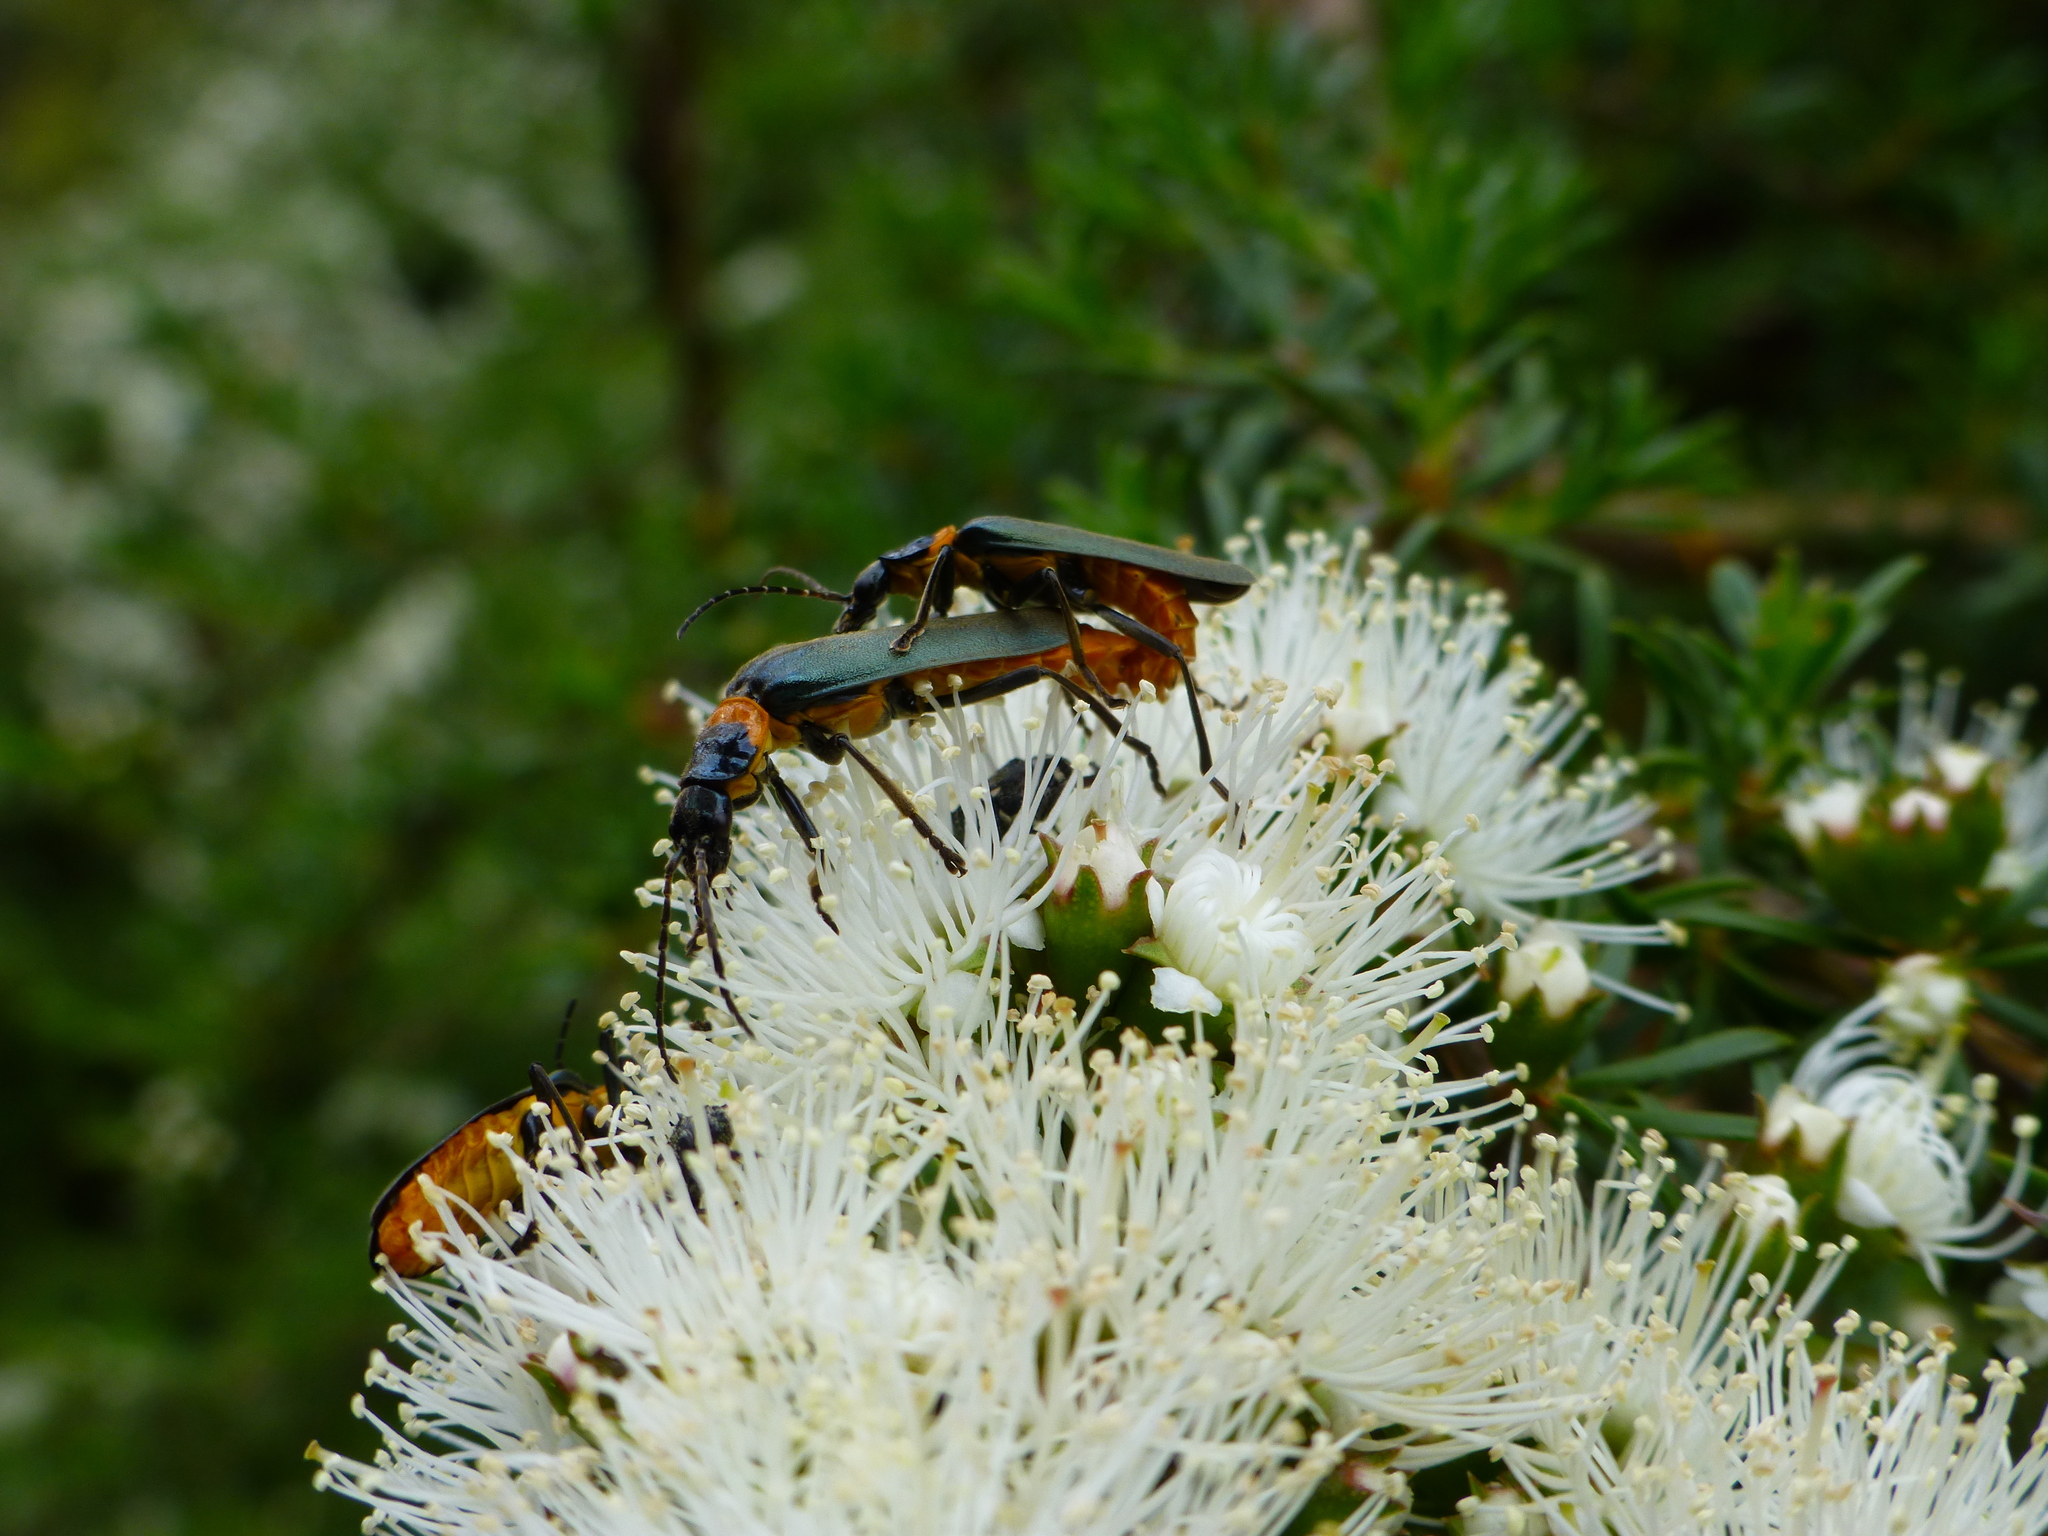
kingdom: Animalia
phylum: Arthropoda
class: Insecta
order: Coleoptera
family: Cantharidae
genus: Chauliognathus
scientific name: Chauliognathus
